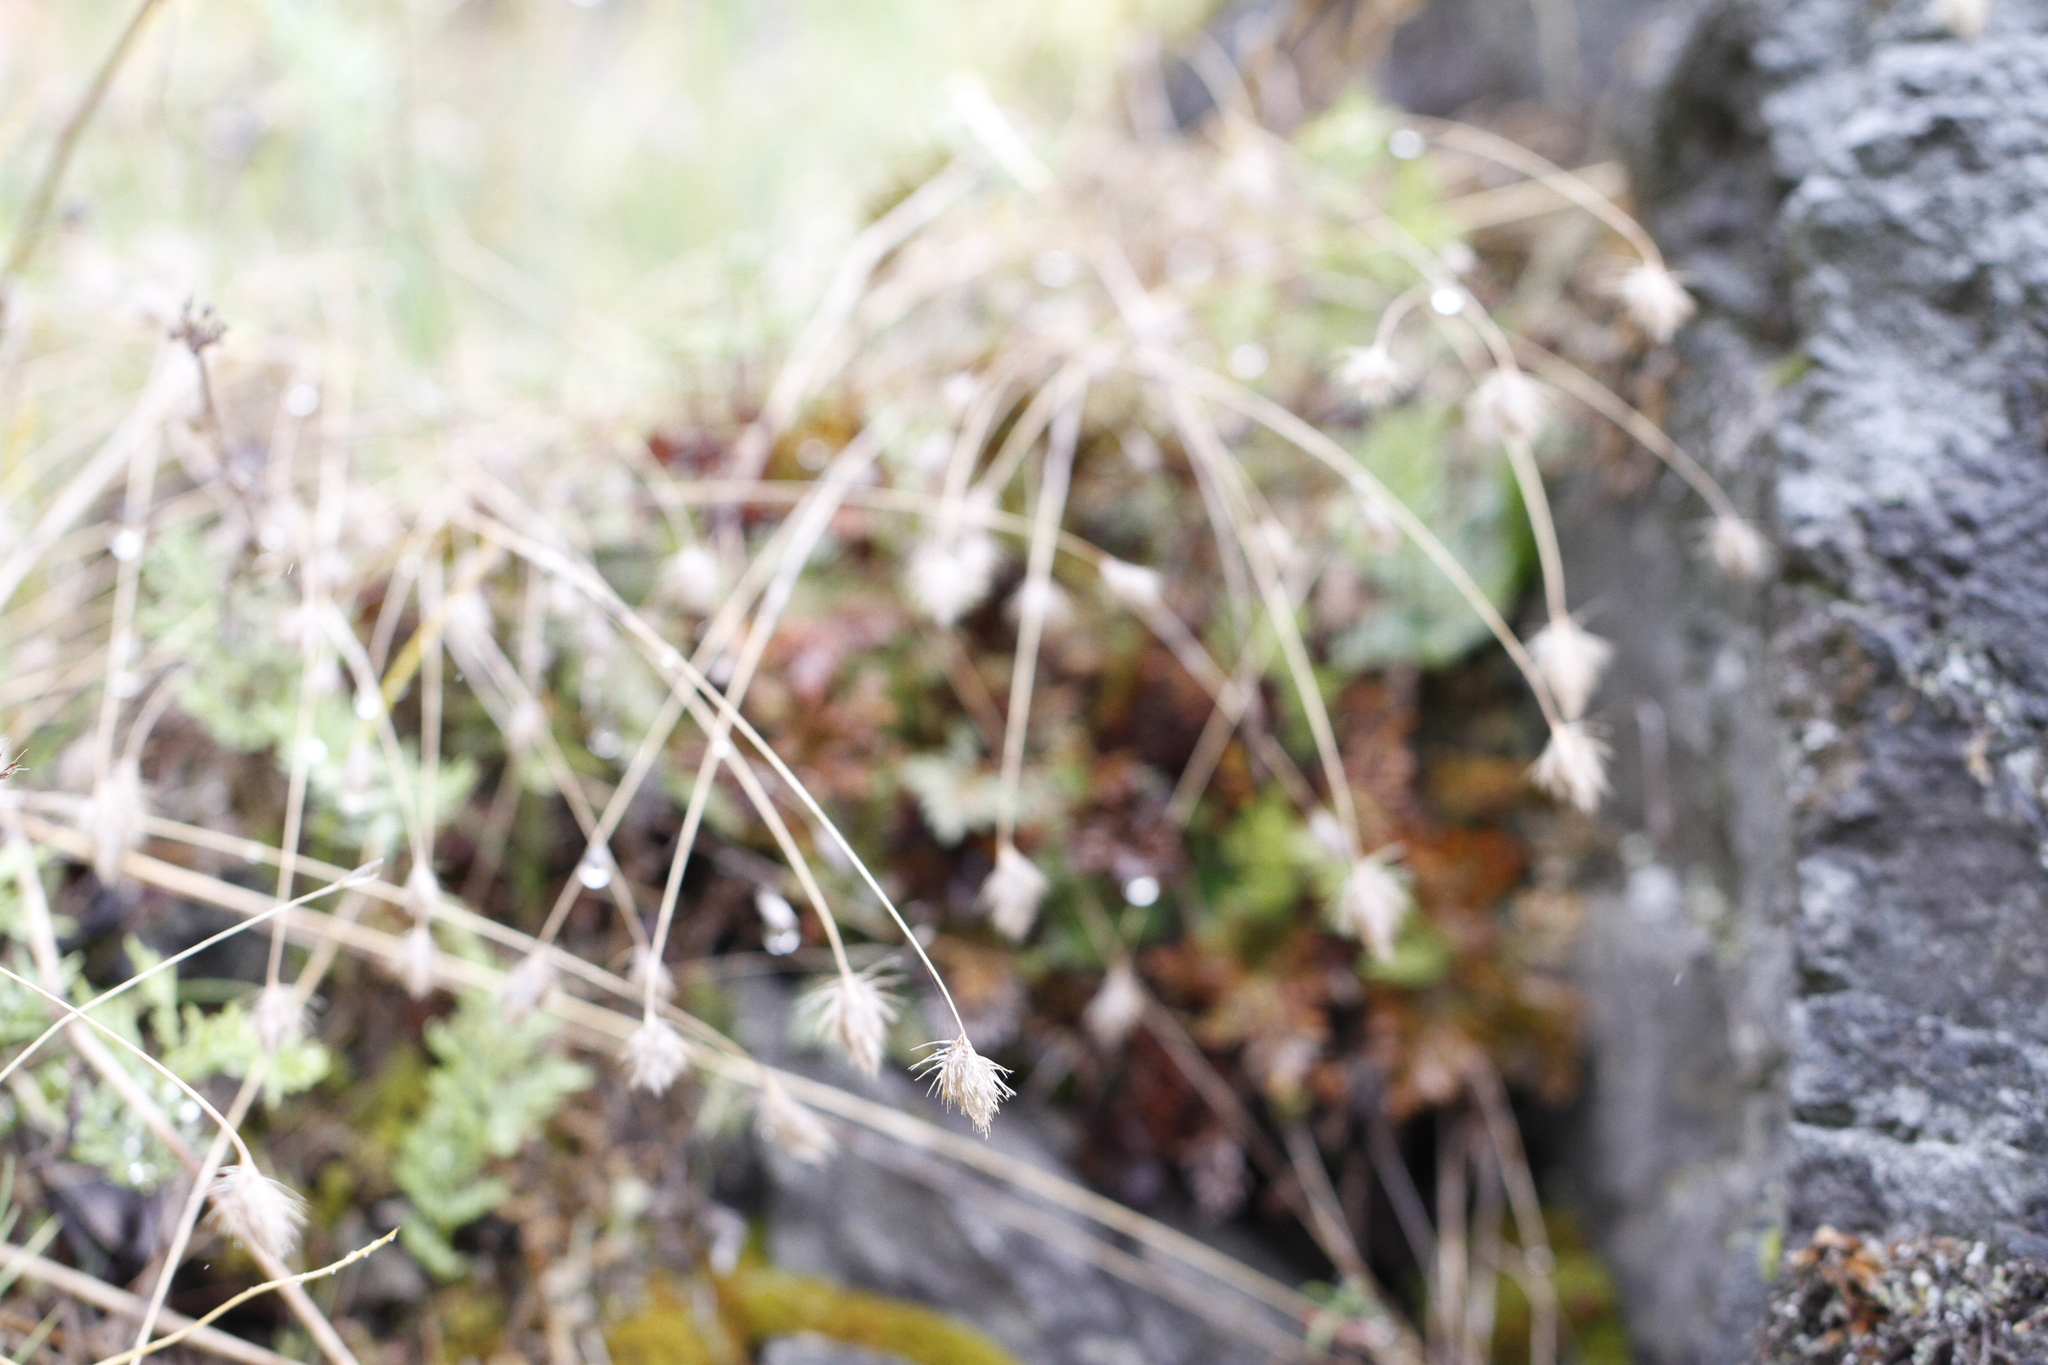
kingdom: Plantae
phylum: Tracheophyta
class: Liliopsida
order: Poales
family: Poaceae
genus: Cynosurus
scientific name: Cynosurus echinatus
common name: Rough dog's-tail
